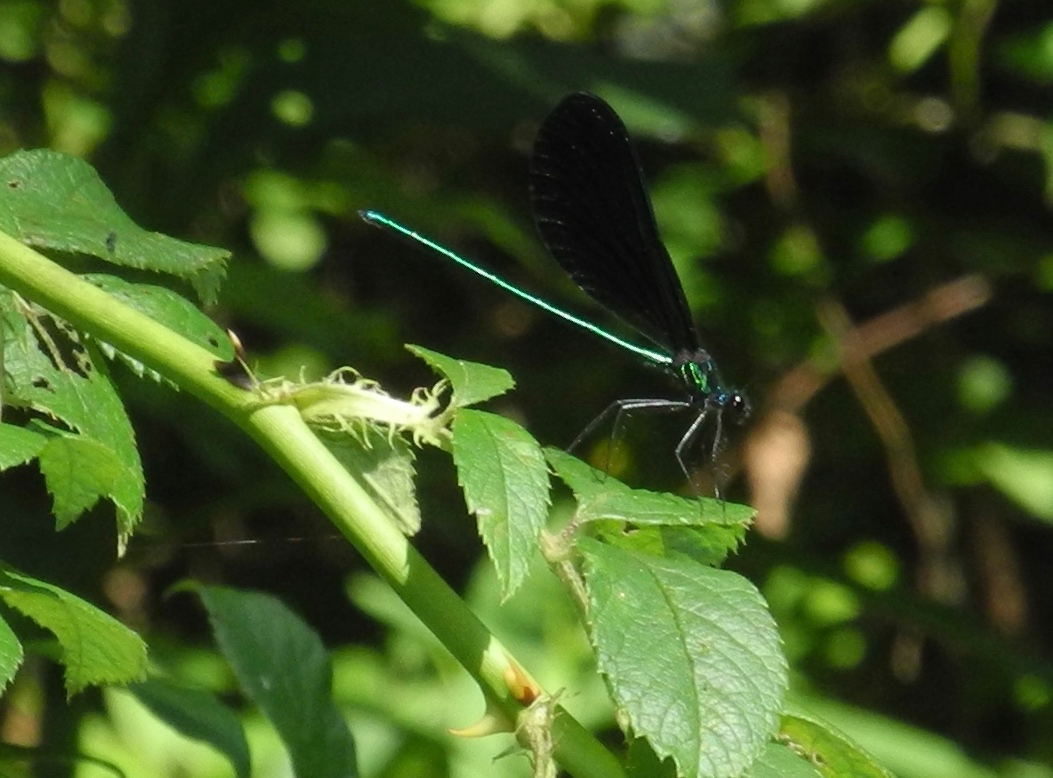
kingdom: Animalia
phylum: Arthropoda
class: Insecta
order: Odonata
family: Calopterygidae
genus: Calopteryx
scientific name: Calopteryx maculata
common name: Ebony jewelwing
